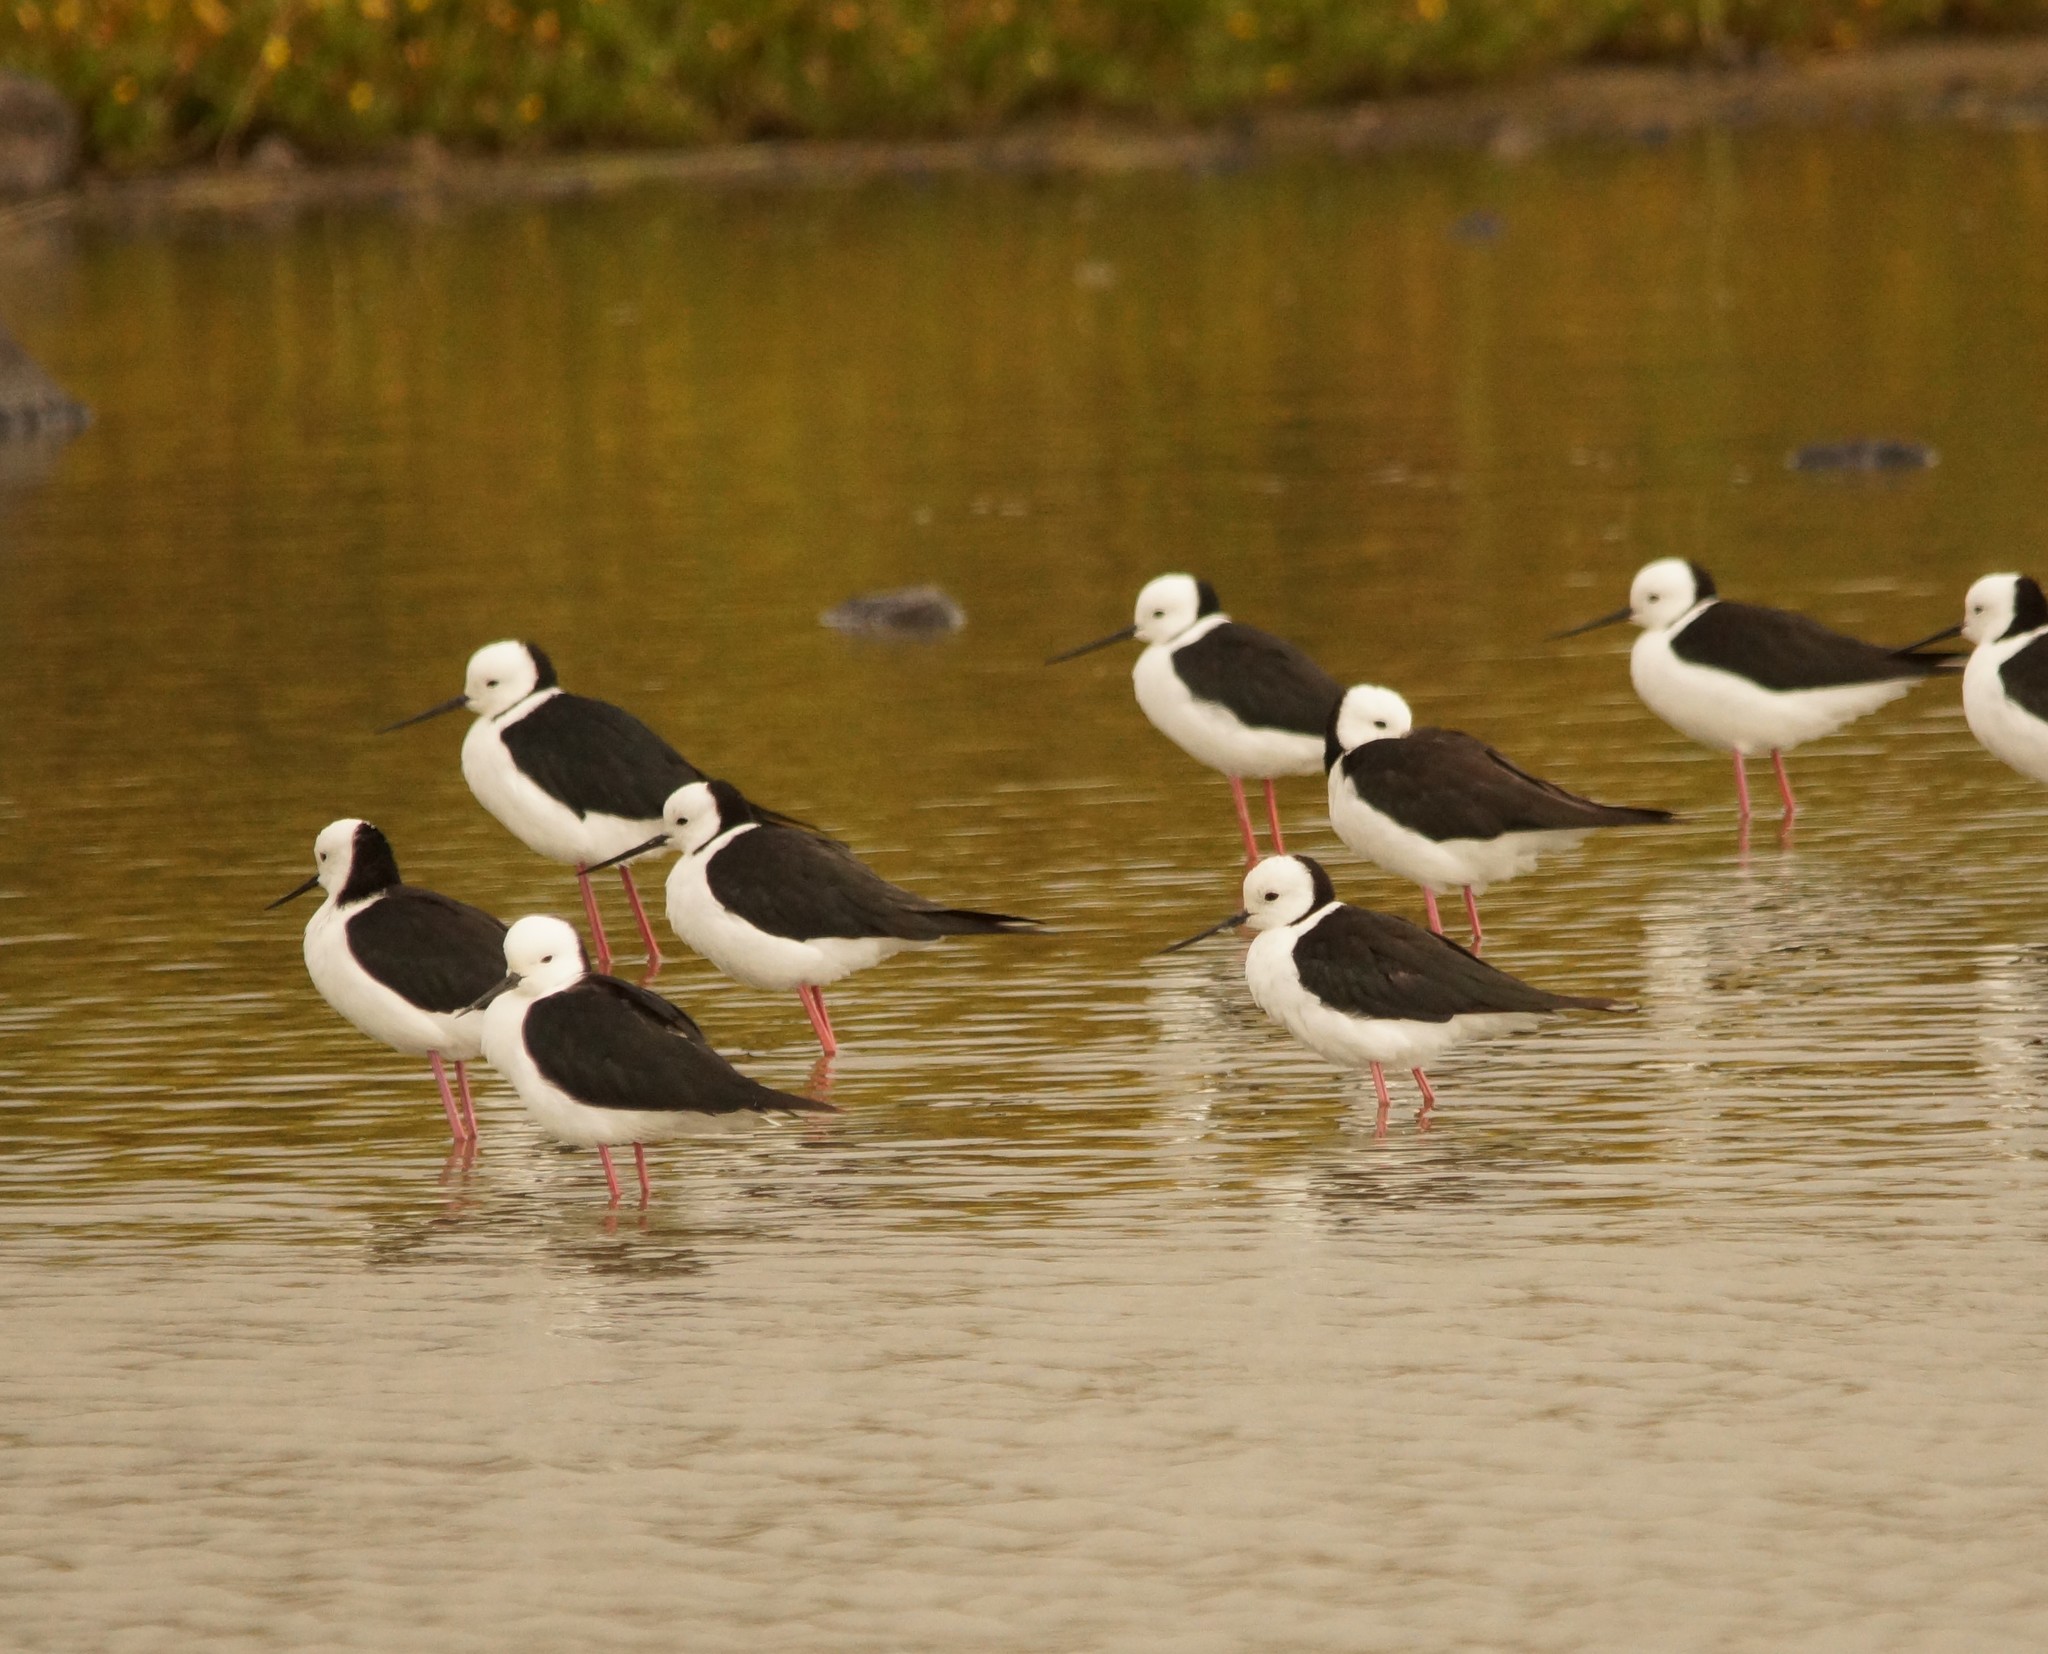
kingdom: Animalia
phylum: Chordata
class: Aves
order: Charadriiformes
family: Recurvirostridae
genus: Himantopus
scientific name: Himantopus leucocephalus
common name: White-headed stilt
